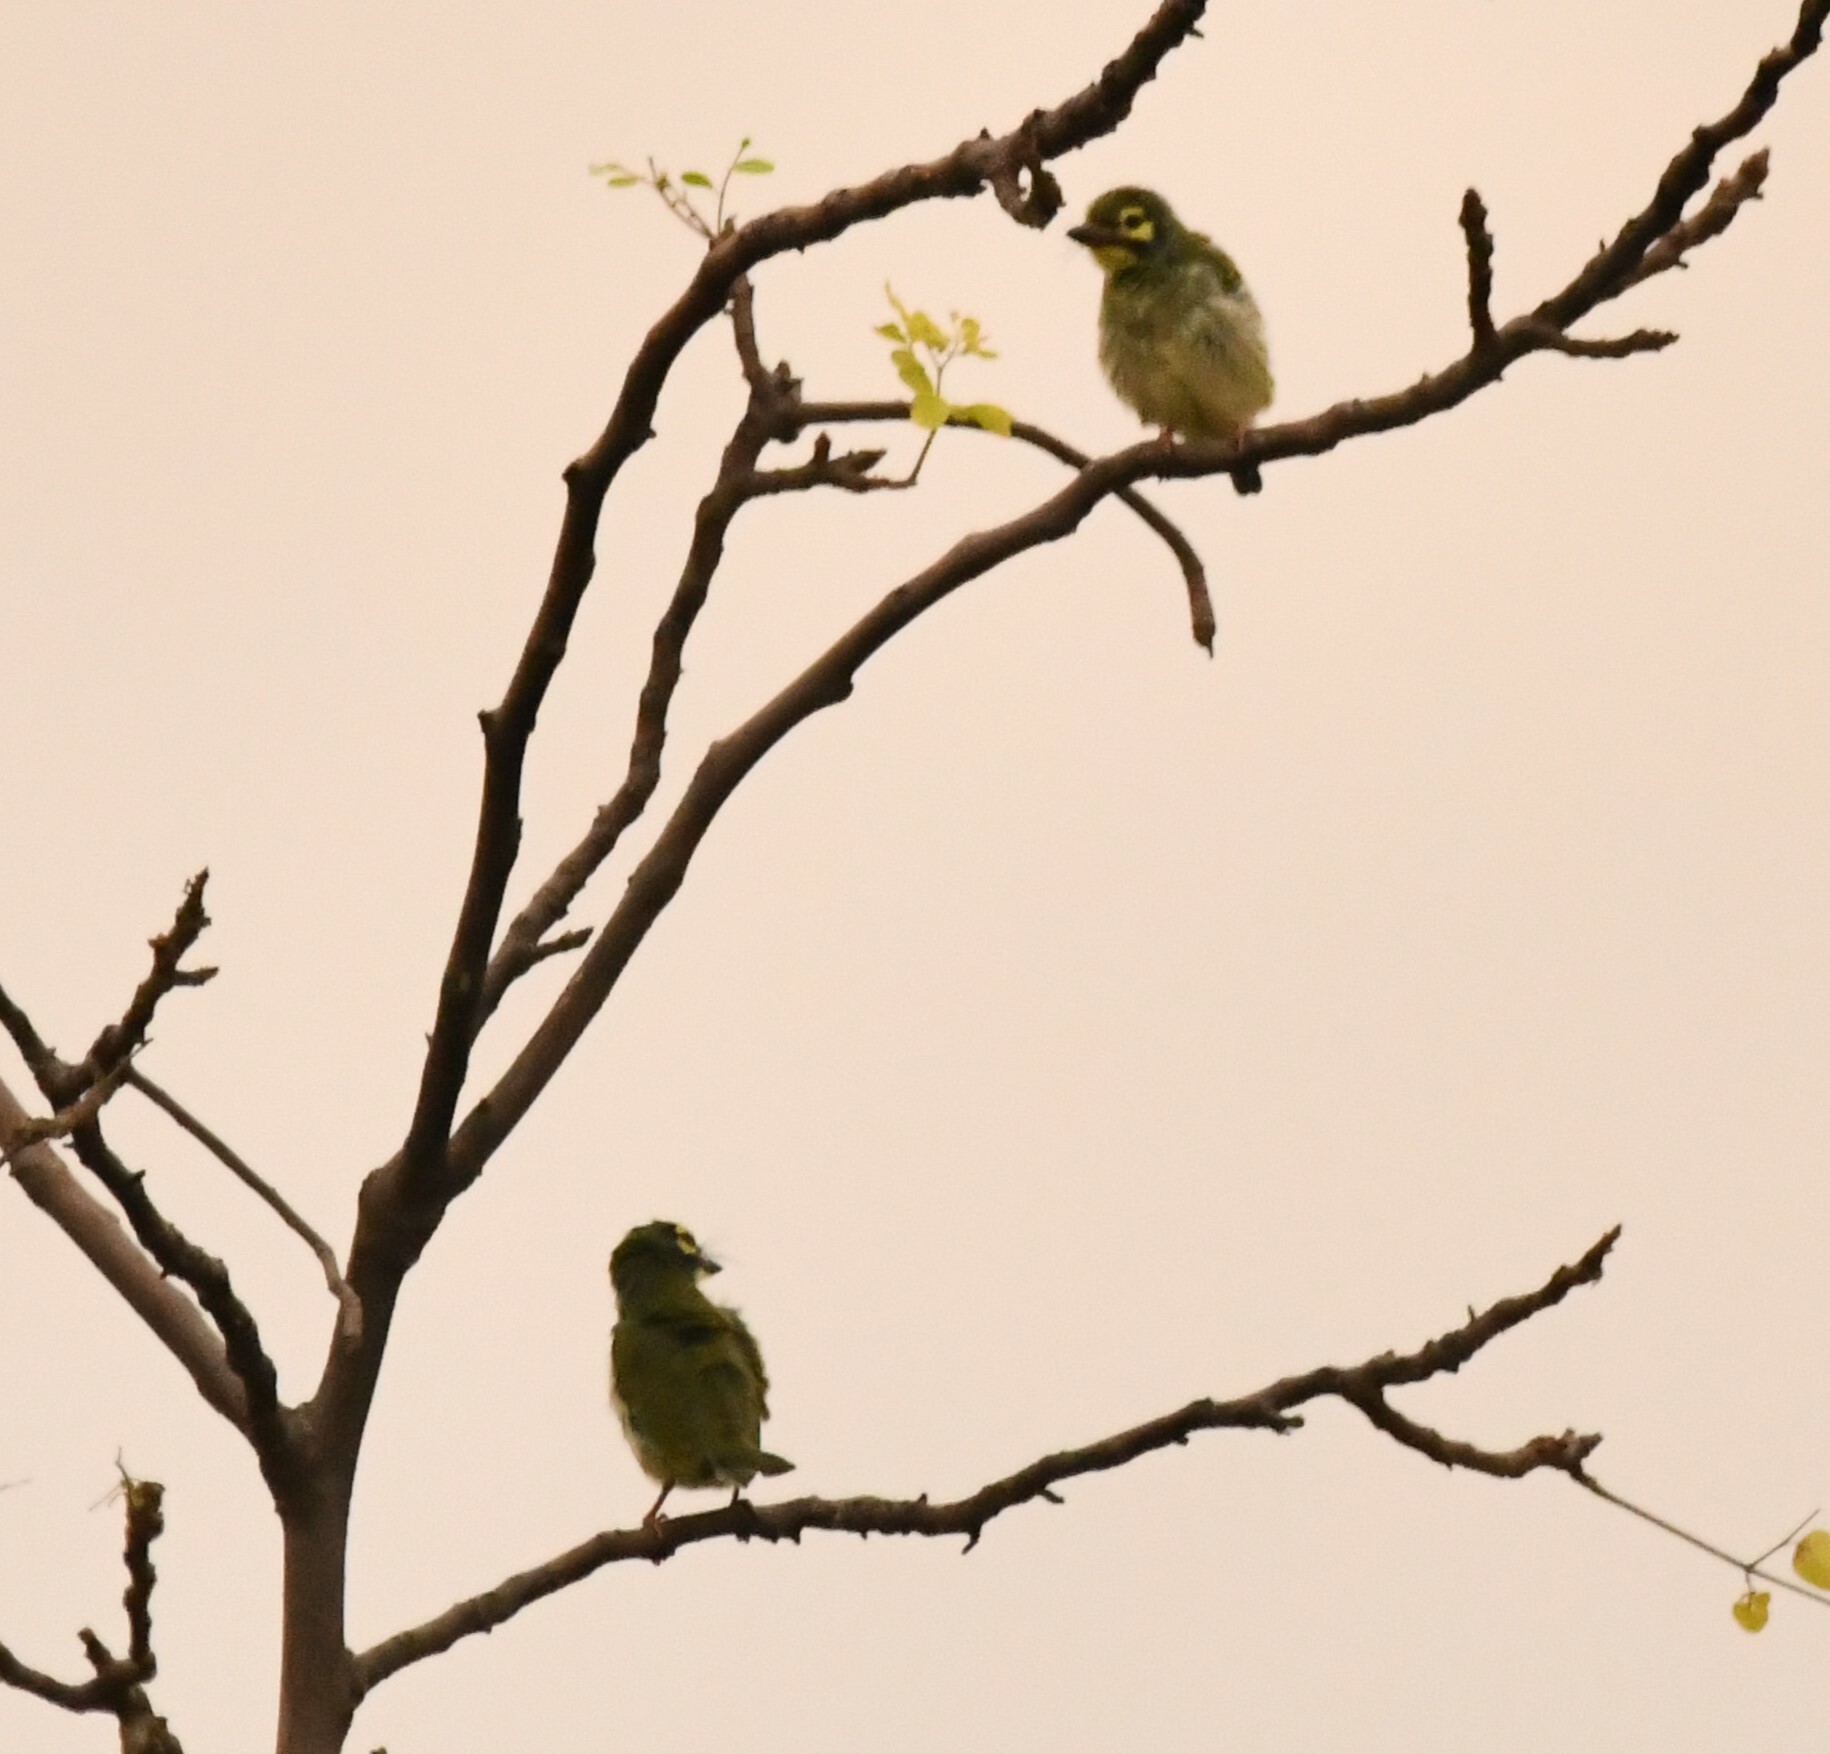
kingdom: Animalia
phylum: Chordata
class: Aves
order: Piciformes
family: Megalaimidae
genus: Psilopogon
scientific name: Psilopogon haemacephalus
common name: Coppersmith barbet
